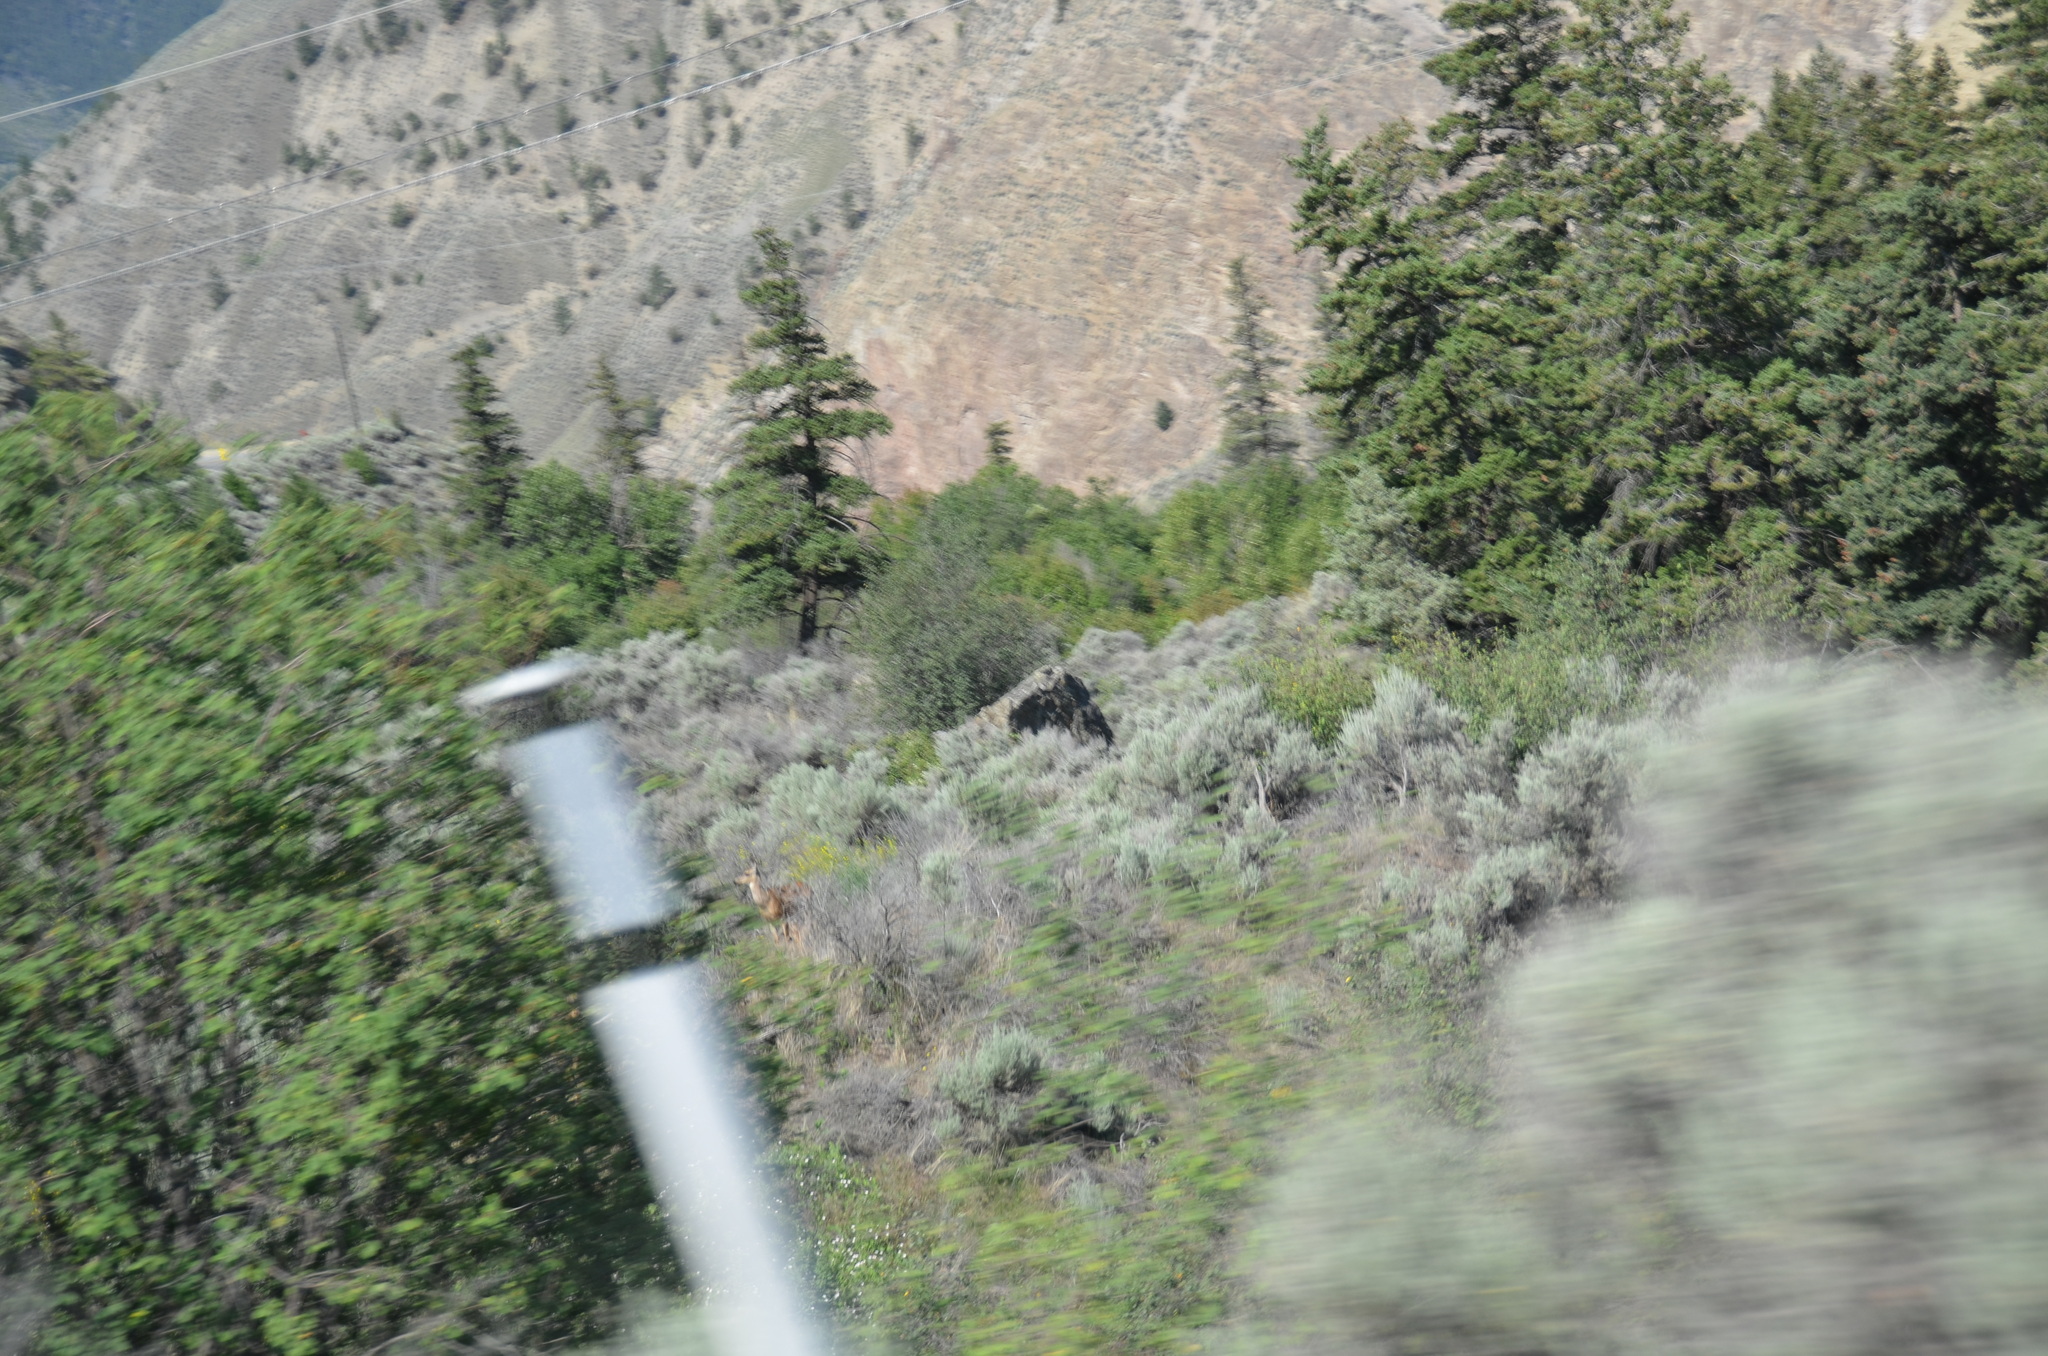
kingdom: Animalia
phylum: Chordata
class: Mammalia
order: Artiodactyla
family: Cervidae
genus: Odocoileus
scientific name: Odocoileus hemionus
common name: Mule deer
